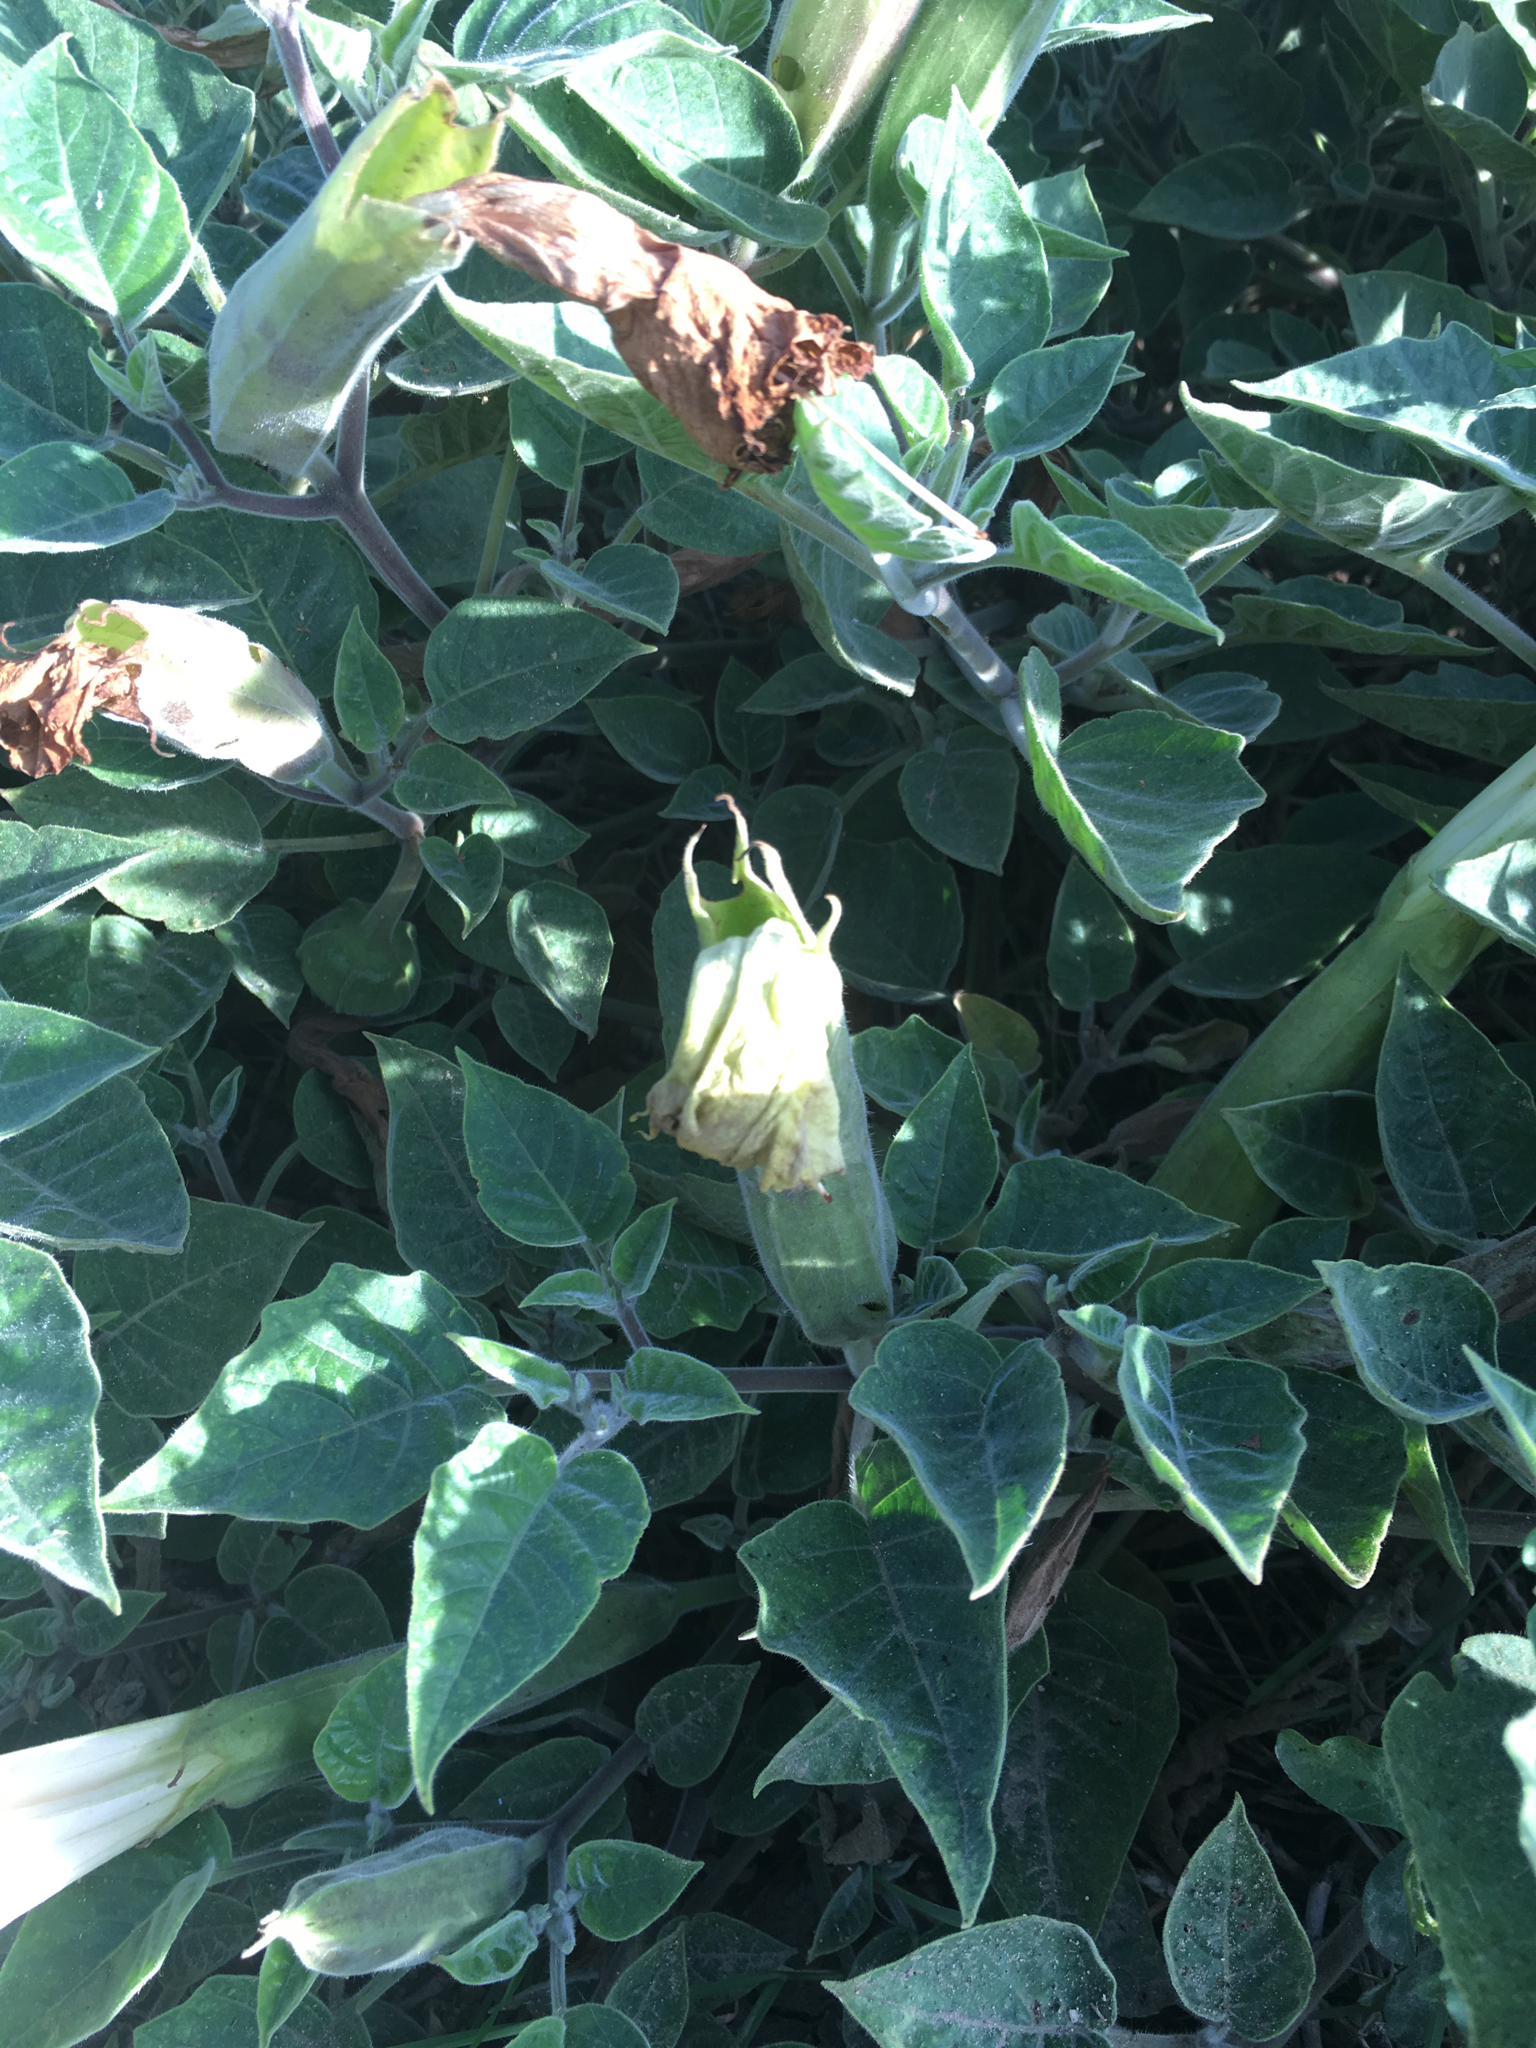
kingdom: Plantae
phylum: Tracheophyta
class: Magnoliopsida
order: Solanales
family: Solanaceae
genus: Datura
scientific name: Datura wrightii
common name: Sacred thorn-apple
